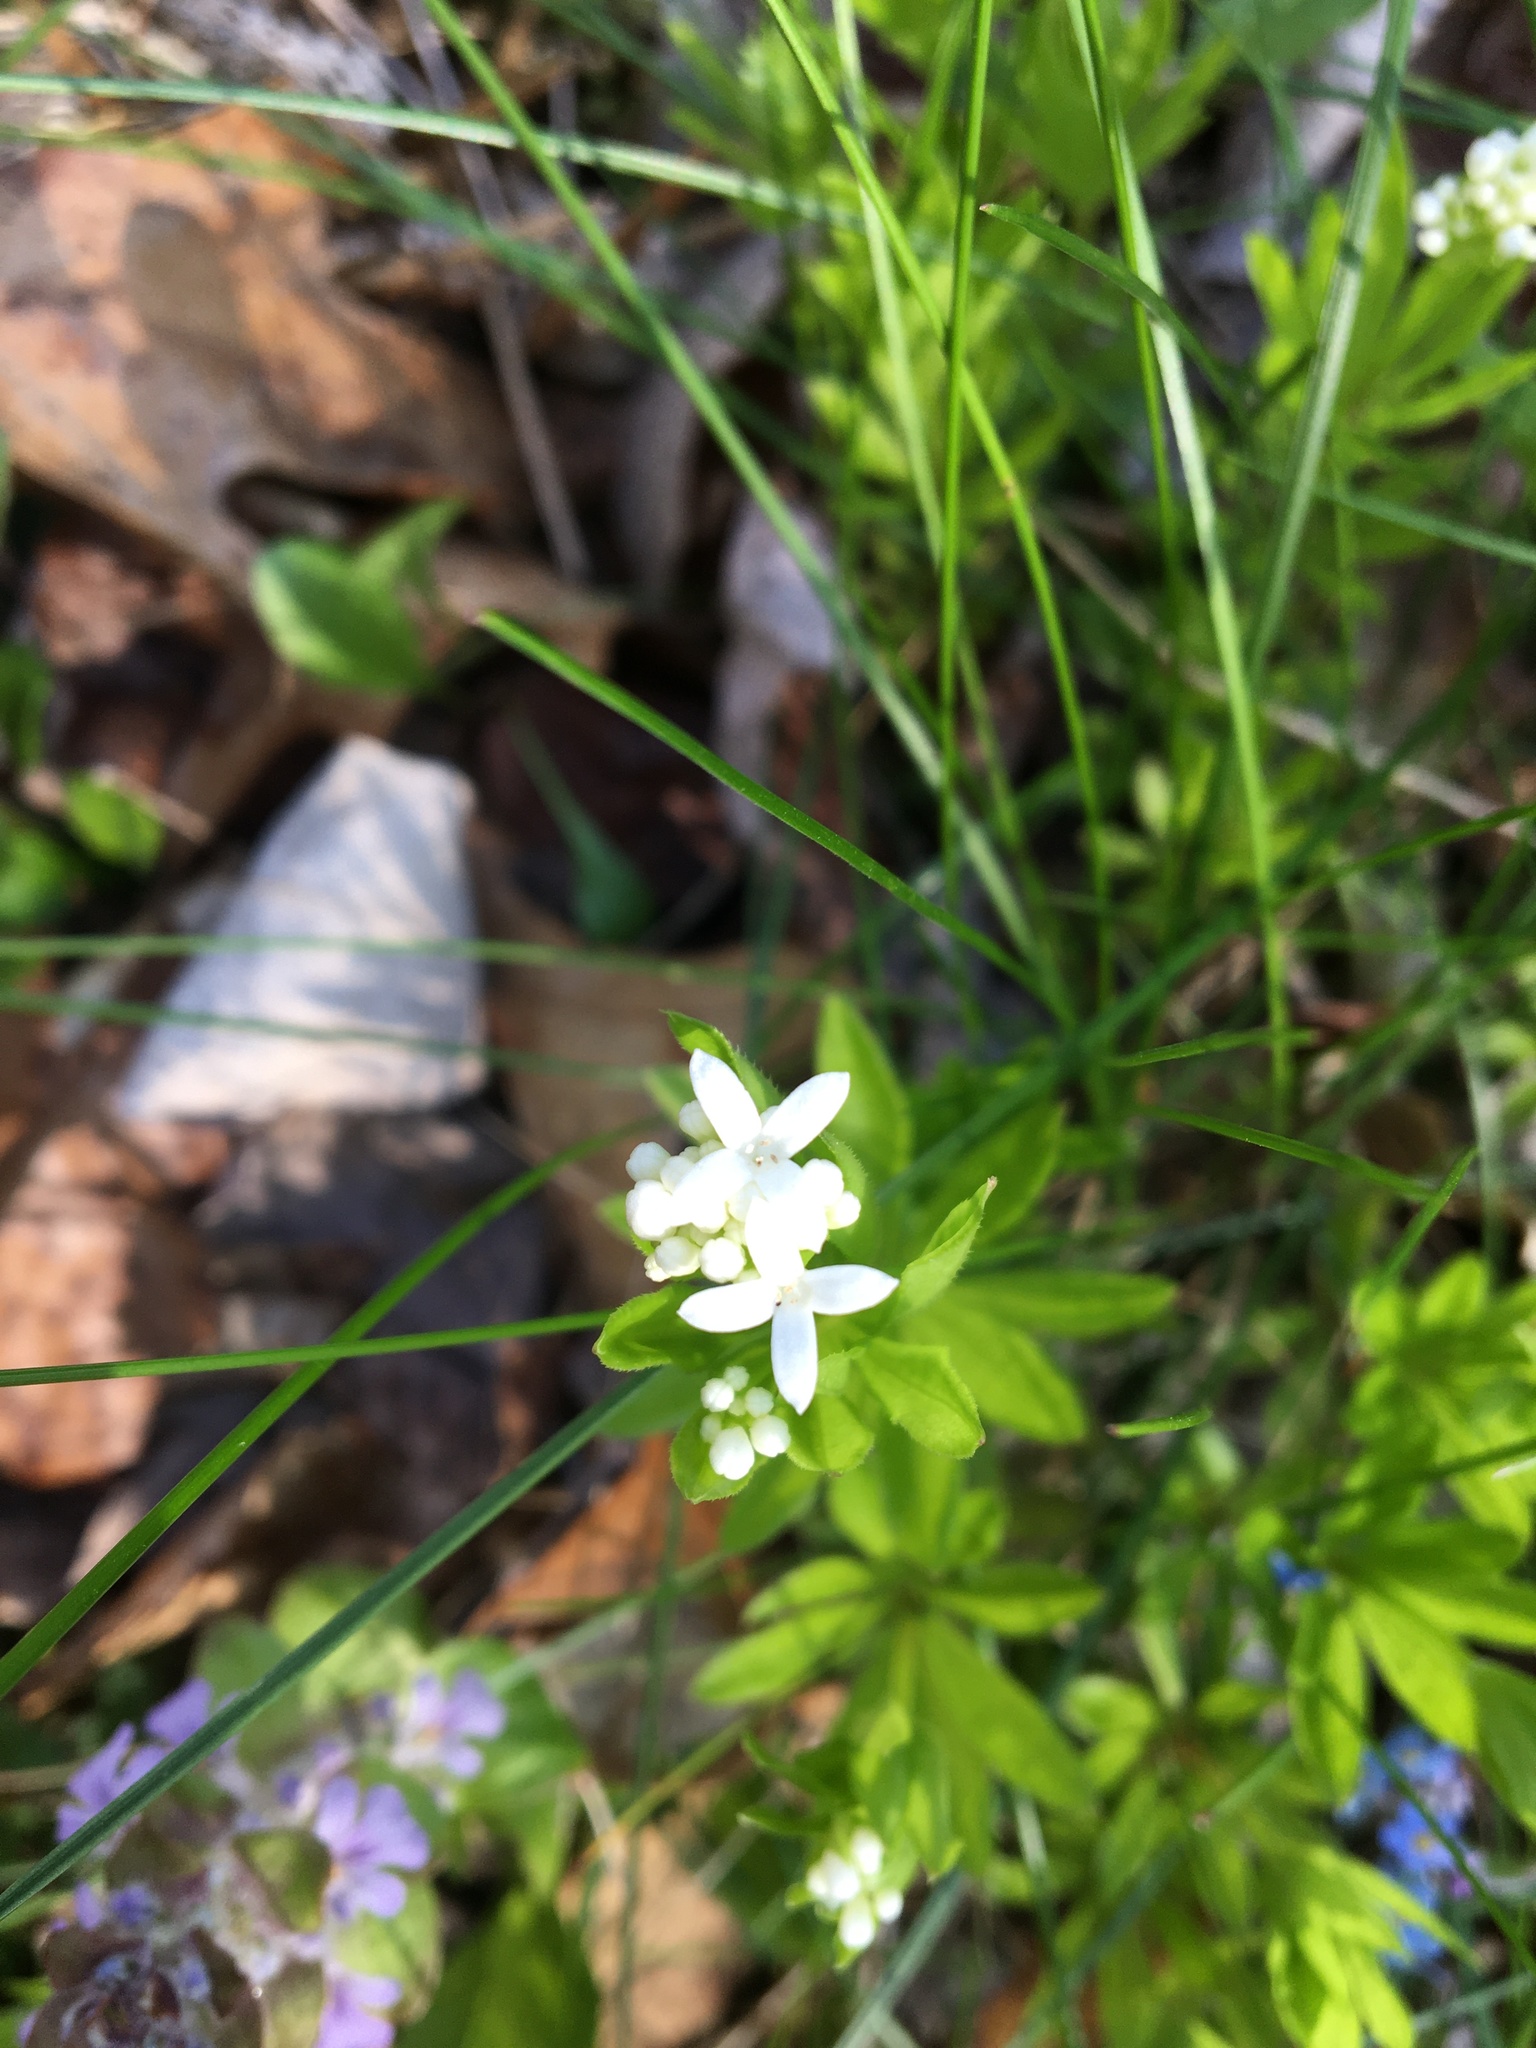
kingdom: Plantae
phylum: Tracheophyta
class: Magnoliopsida
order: Gentianales
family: Rubiaceae
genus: Galium
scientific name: Galium odoratum
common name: Sweet woodruff
